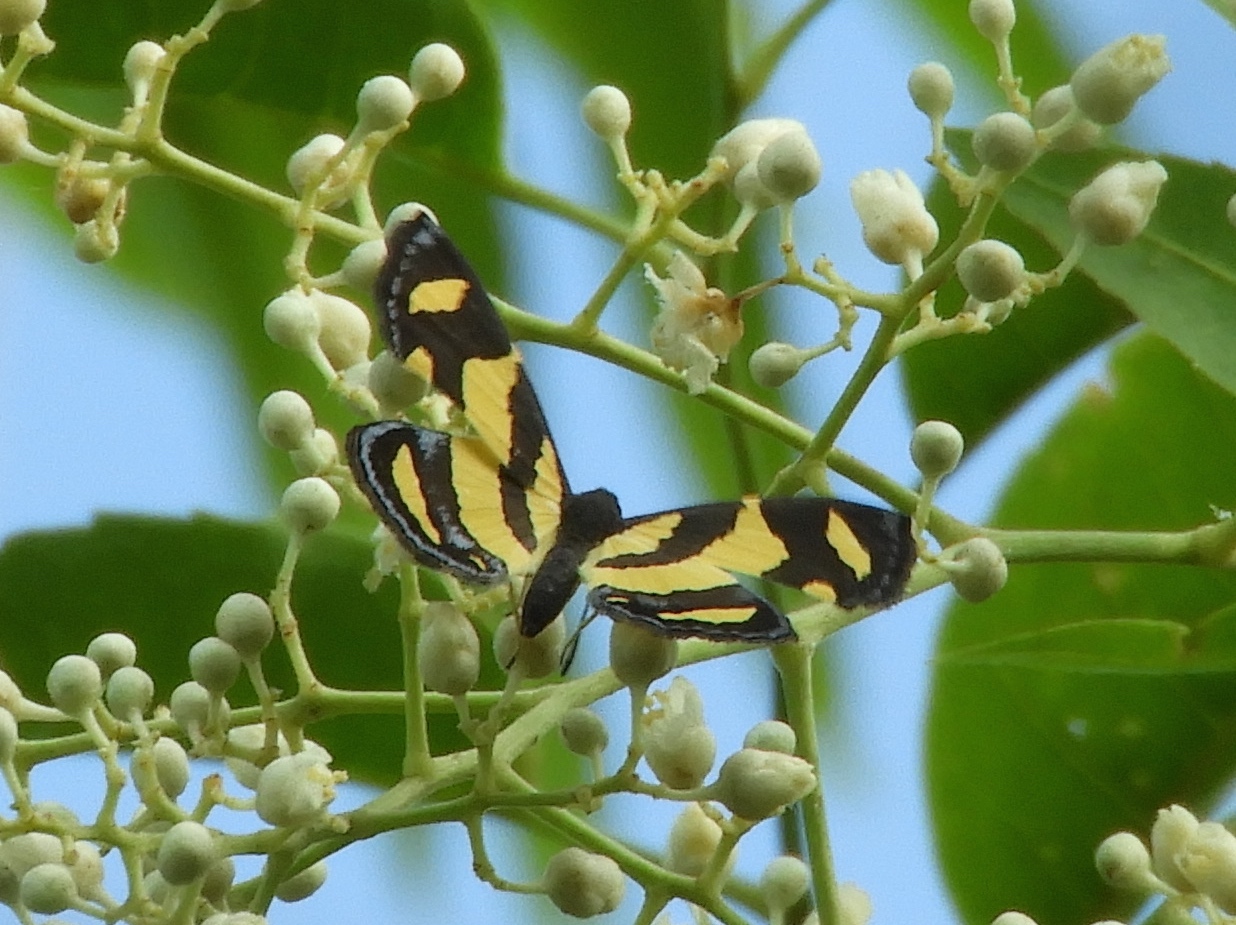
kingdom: Animalia
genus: Baeotis
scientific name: Baeotis zonata
